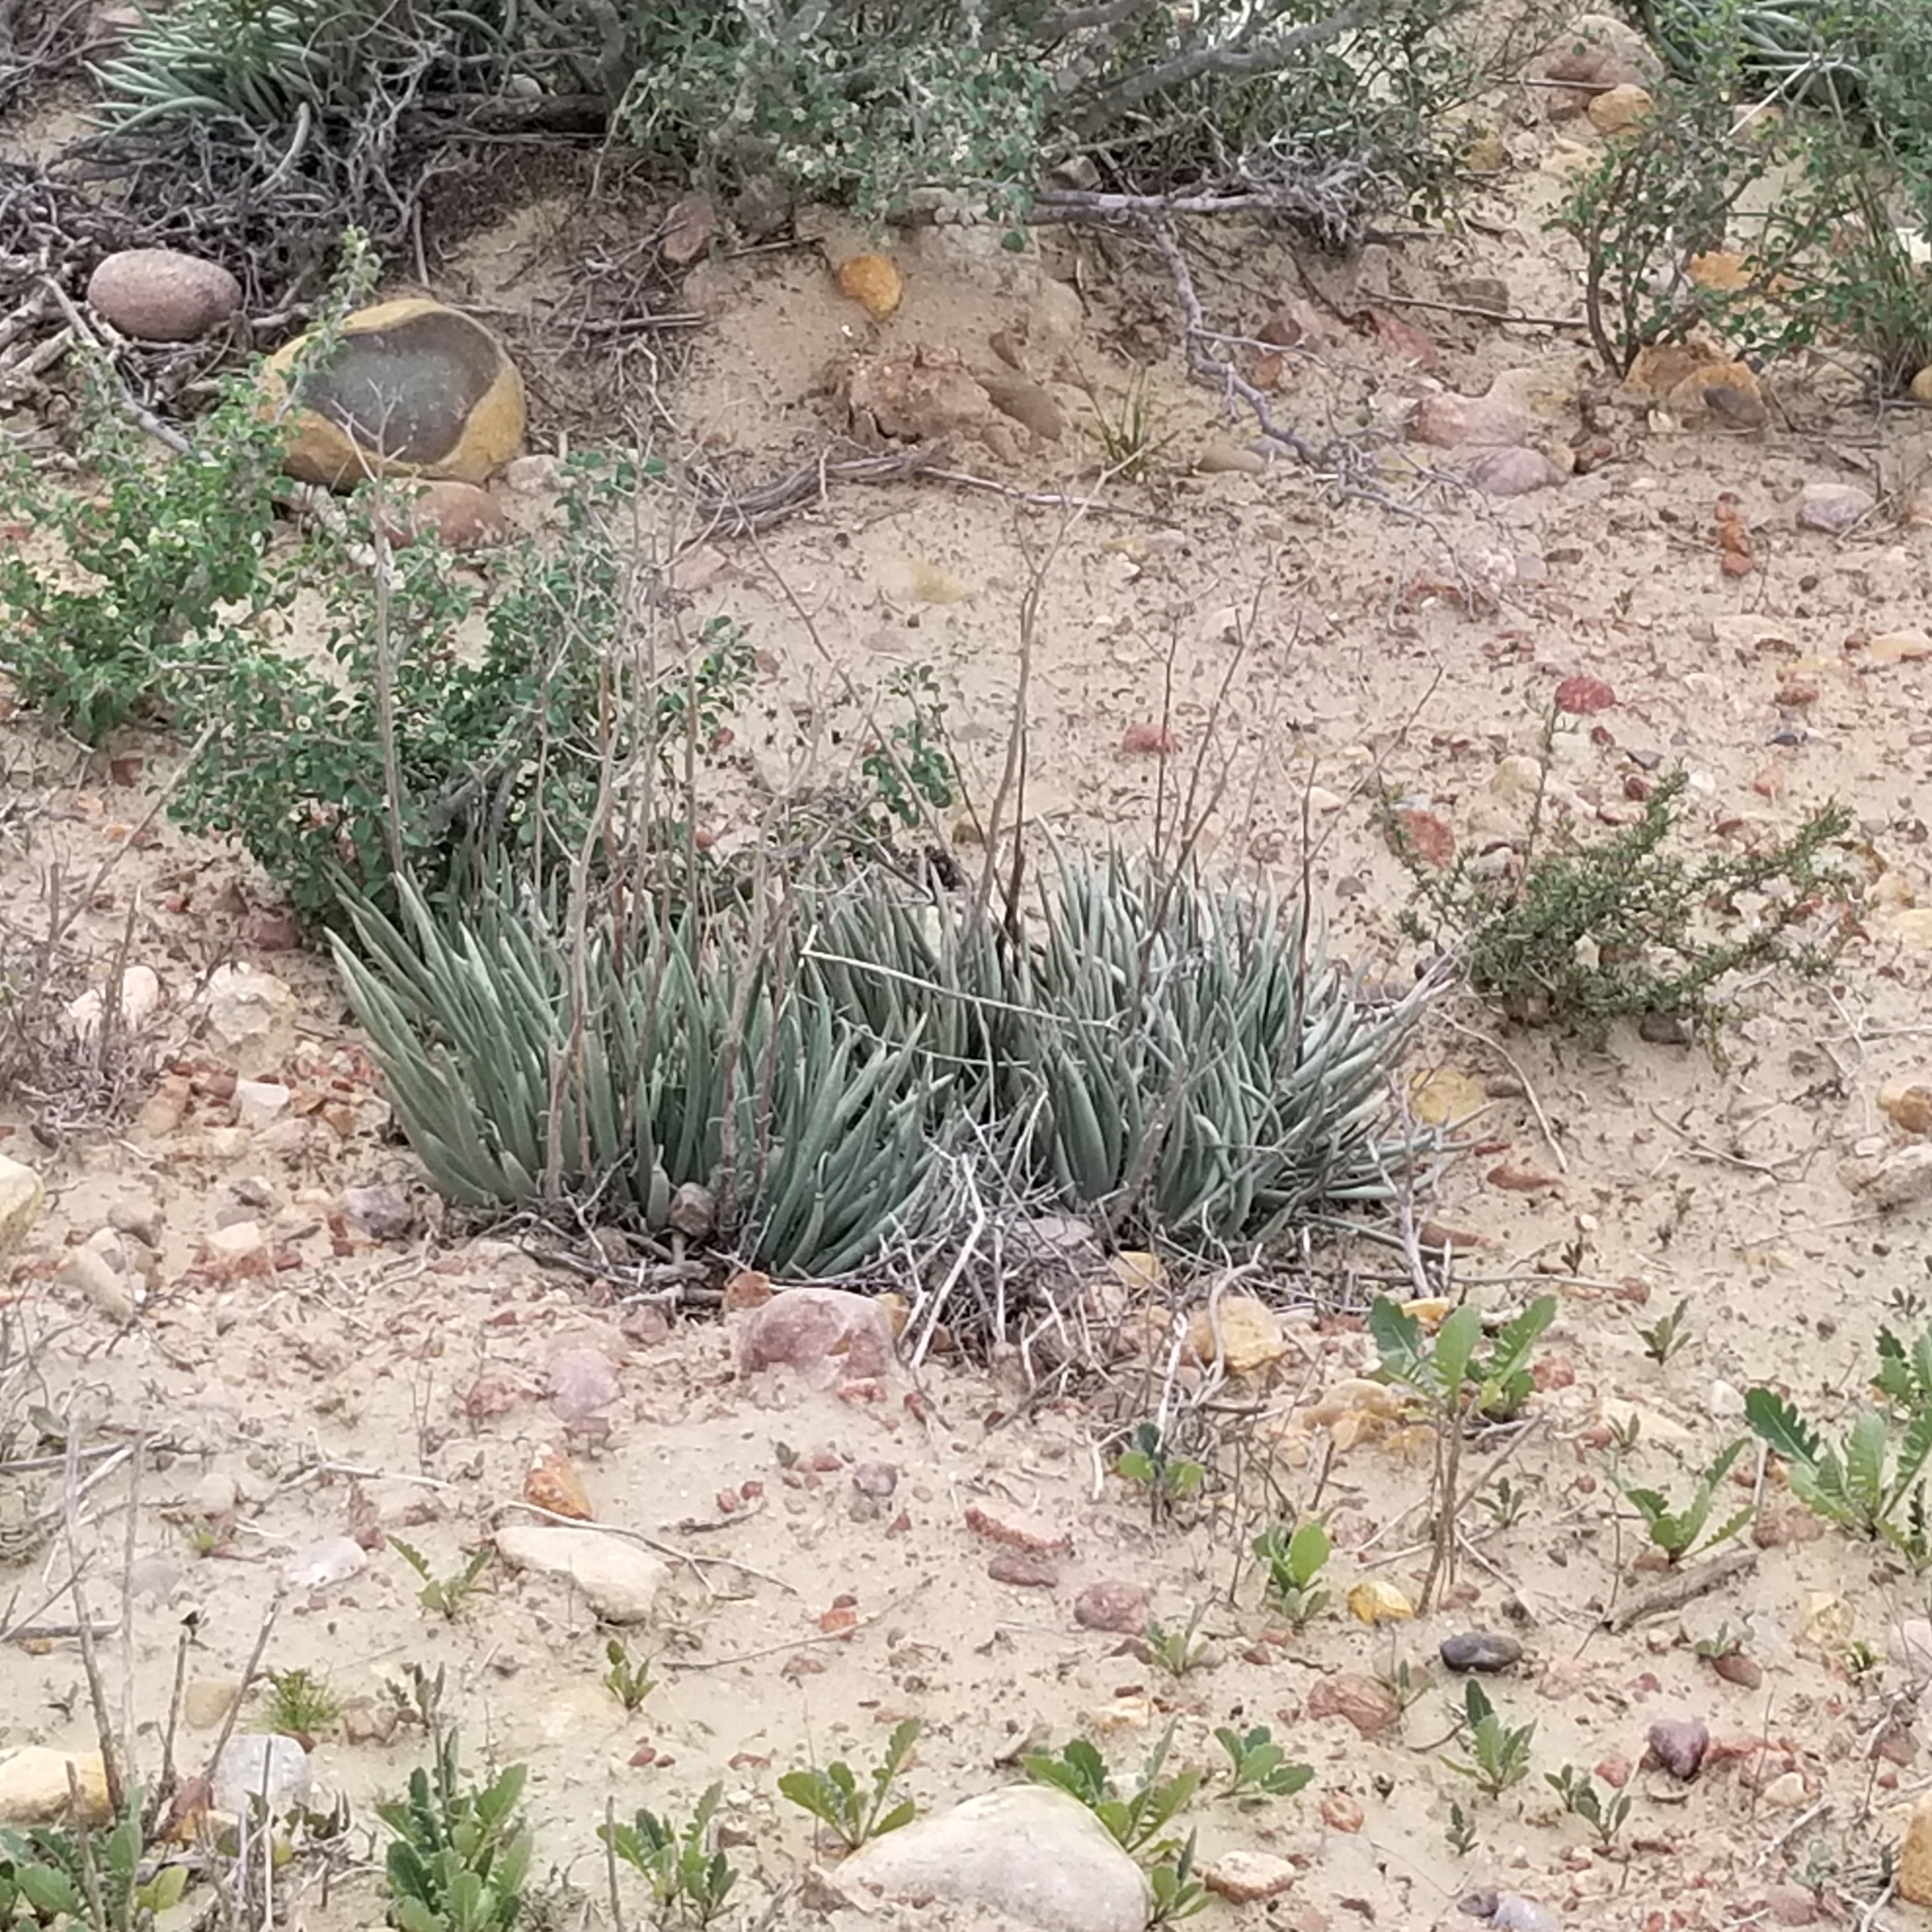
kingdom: Plantae
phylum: Tracheophyta
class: Magnoliopsida
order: Saxifragales
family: Crassulaceae
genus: Dudleya
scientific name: Dudleya edulis
